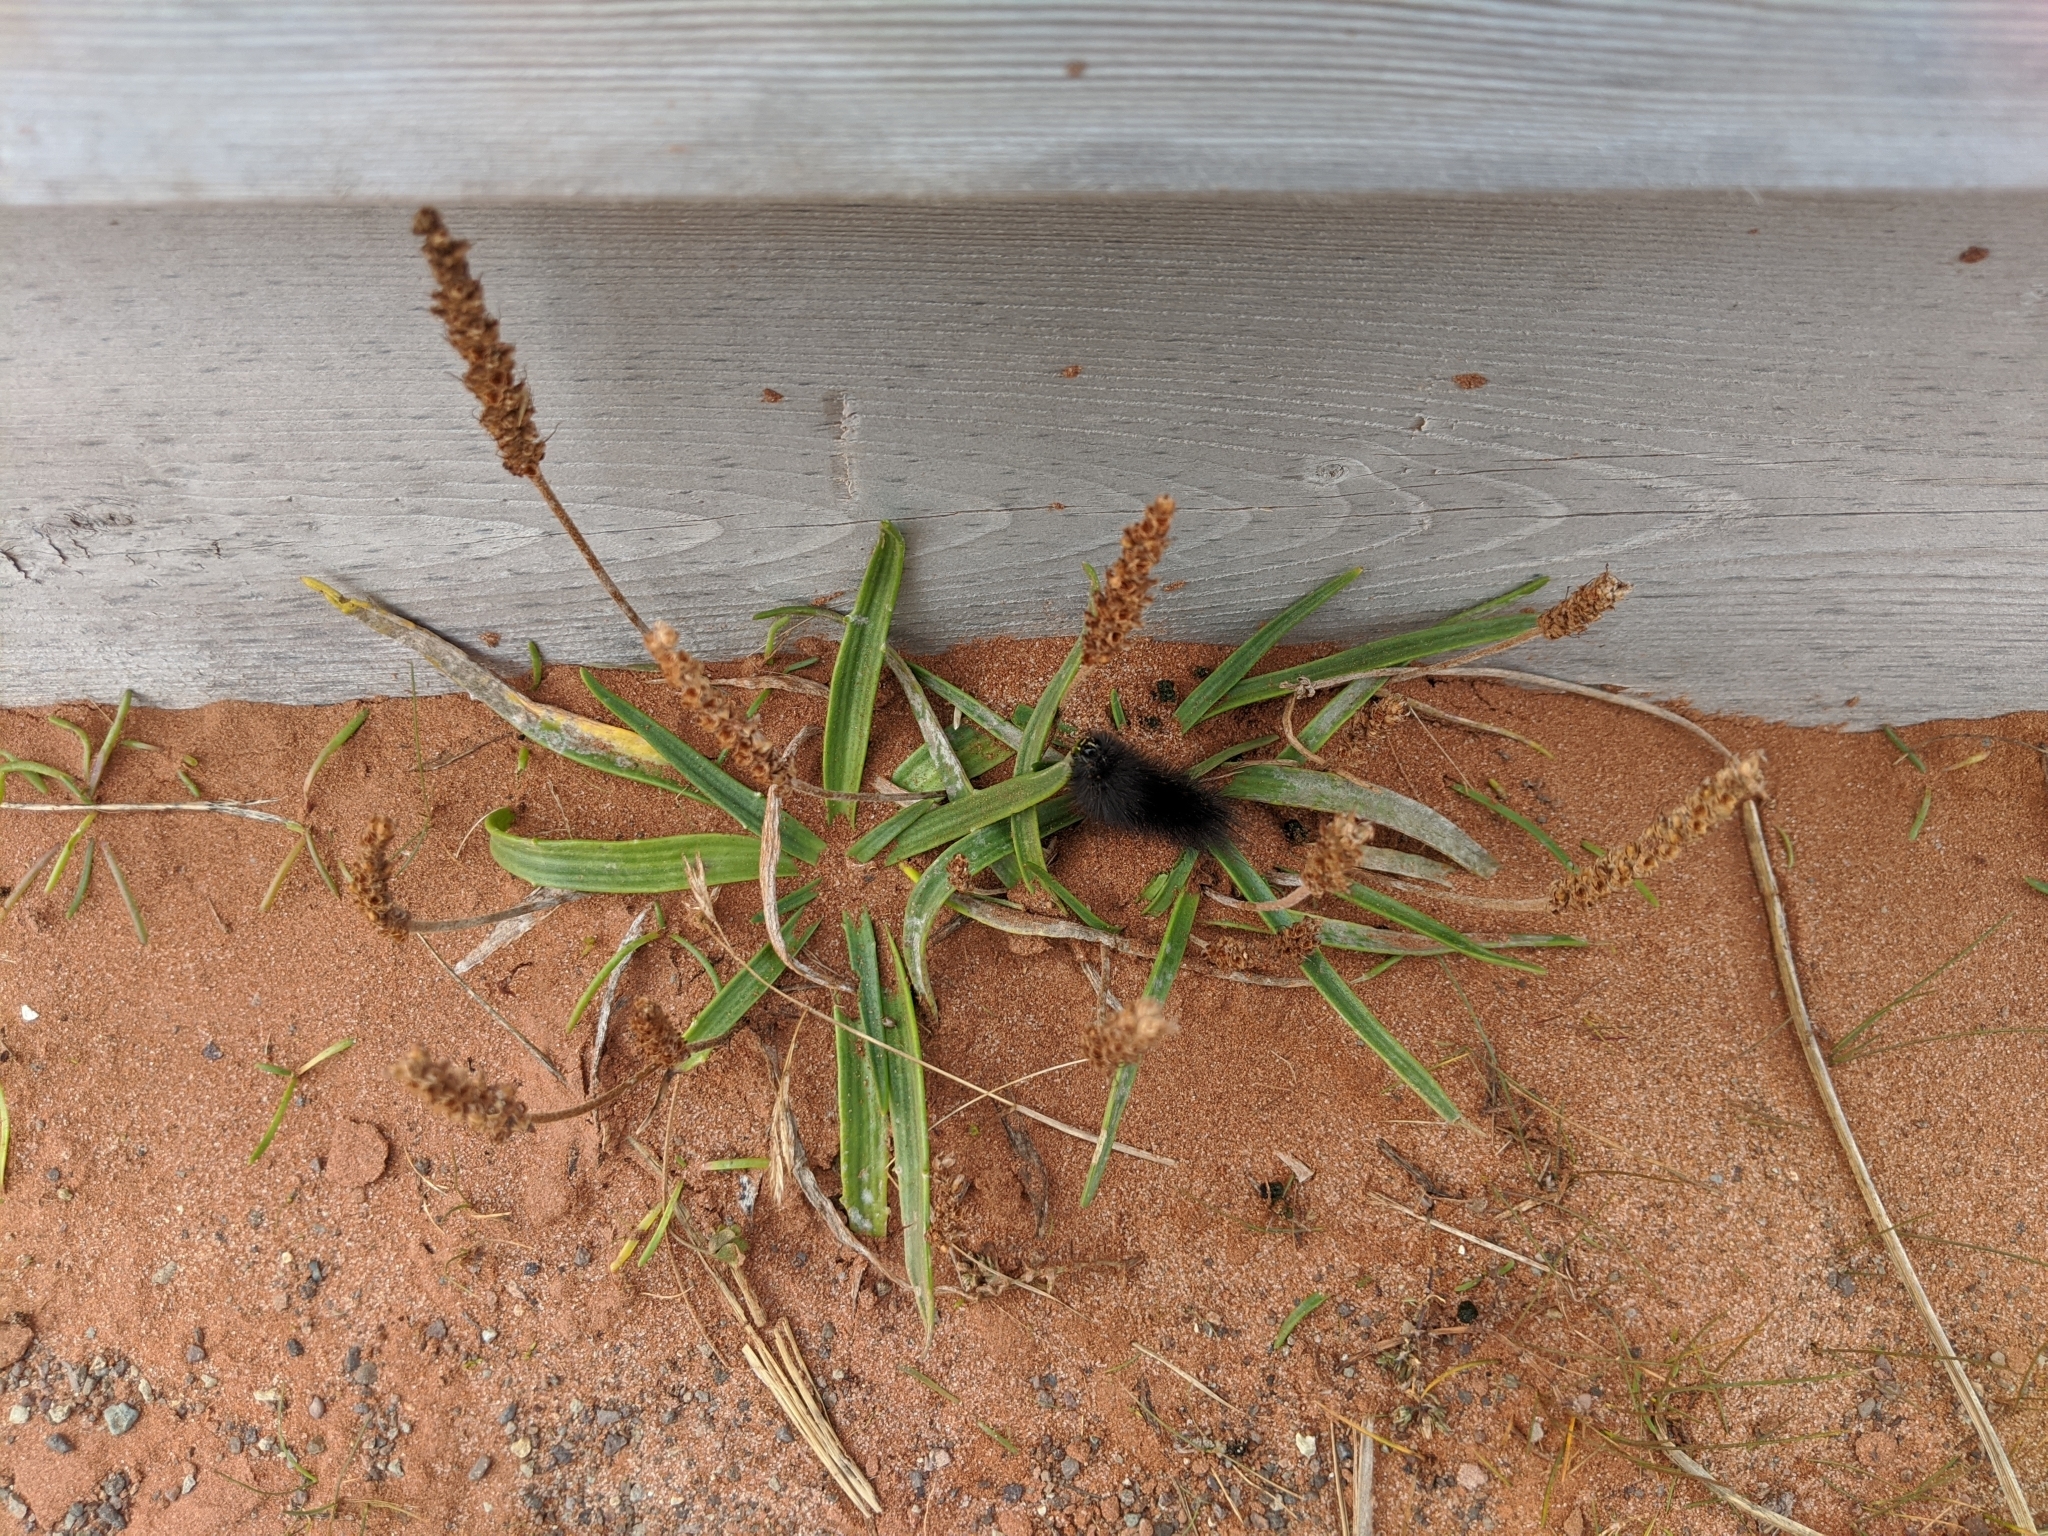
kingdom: Plantae
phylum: Tracheophyta
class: Magnoliopsida
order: Lamiales
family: Plantaginaceae
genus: Plantago
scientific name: Plantago maritima
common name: Sea plantain
